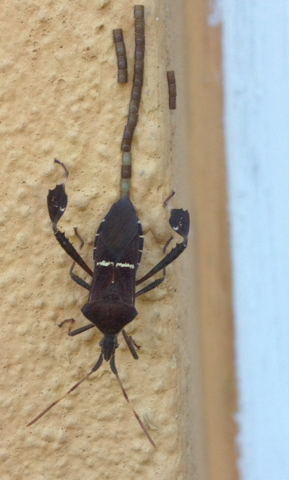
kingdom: Animalia
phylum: Arthropoda
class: Insecta
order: Hemiptera
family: Coreidae
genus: Leptoglossus
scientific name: Leptoglossus phyllopus
